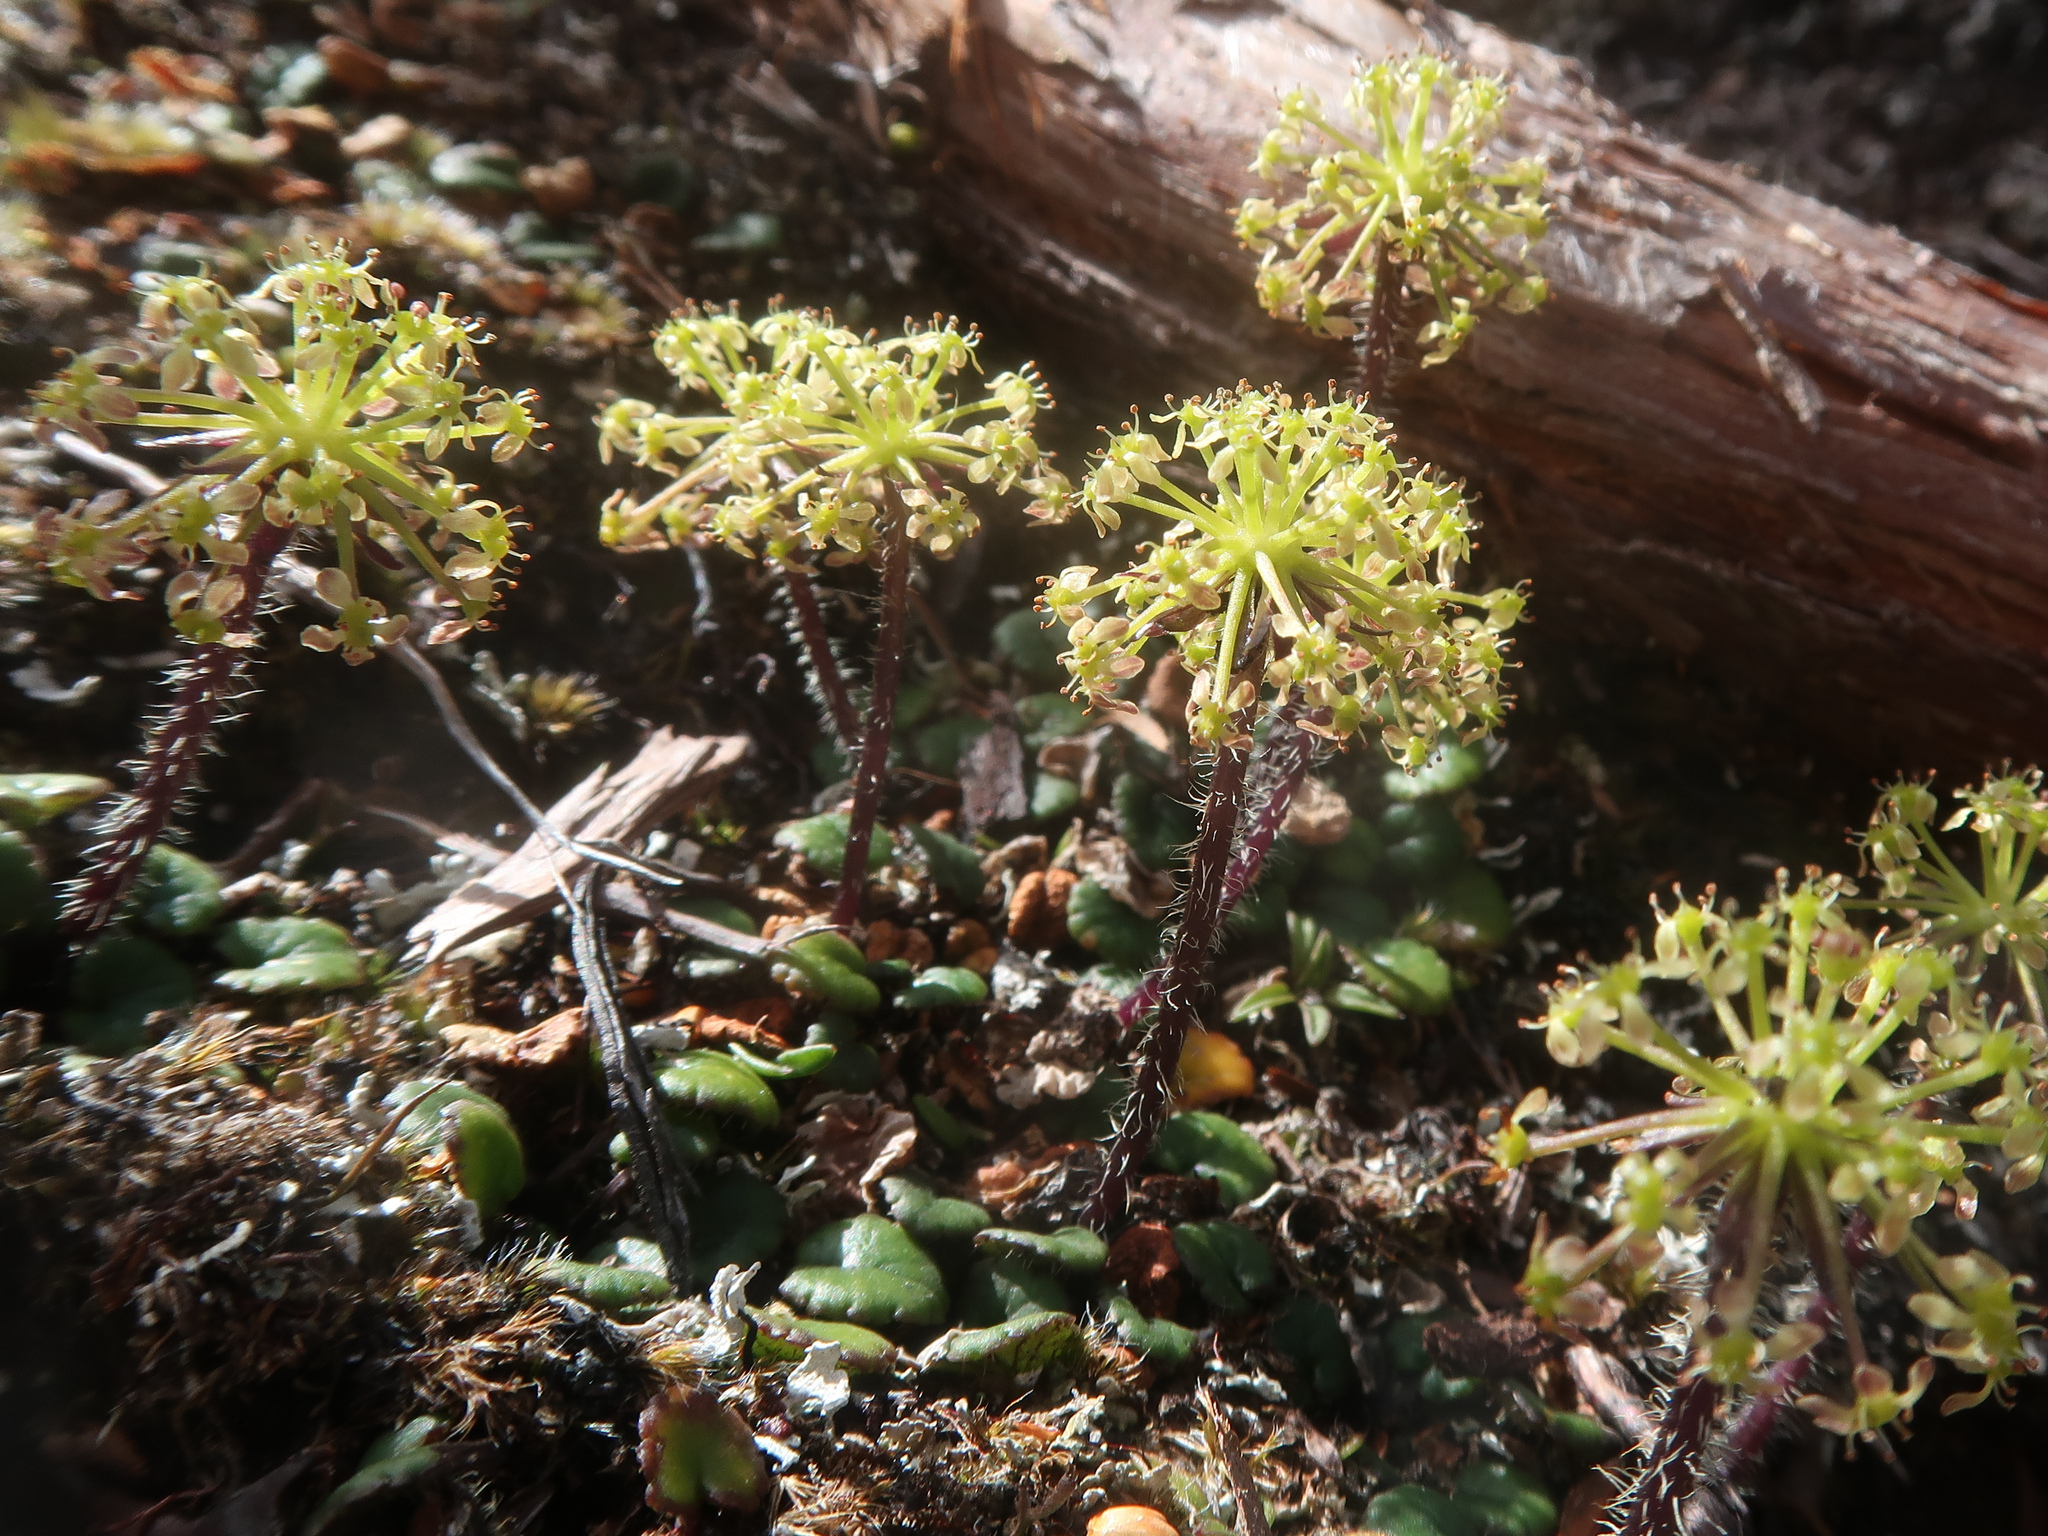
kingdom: Plantae
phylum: Tracheophyta
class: Magnoliopsida
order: Apiales
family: Apiaceae
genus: Diplaspis
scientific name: Diplaspis cordifolia
